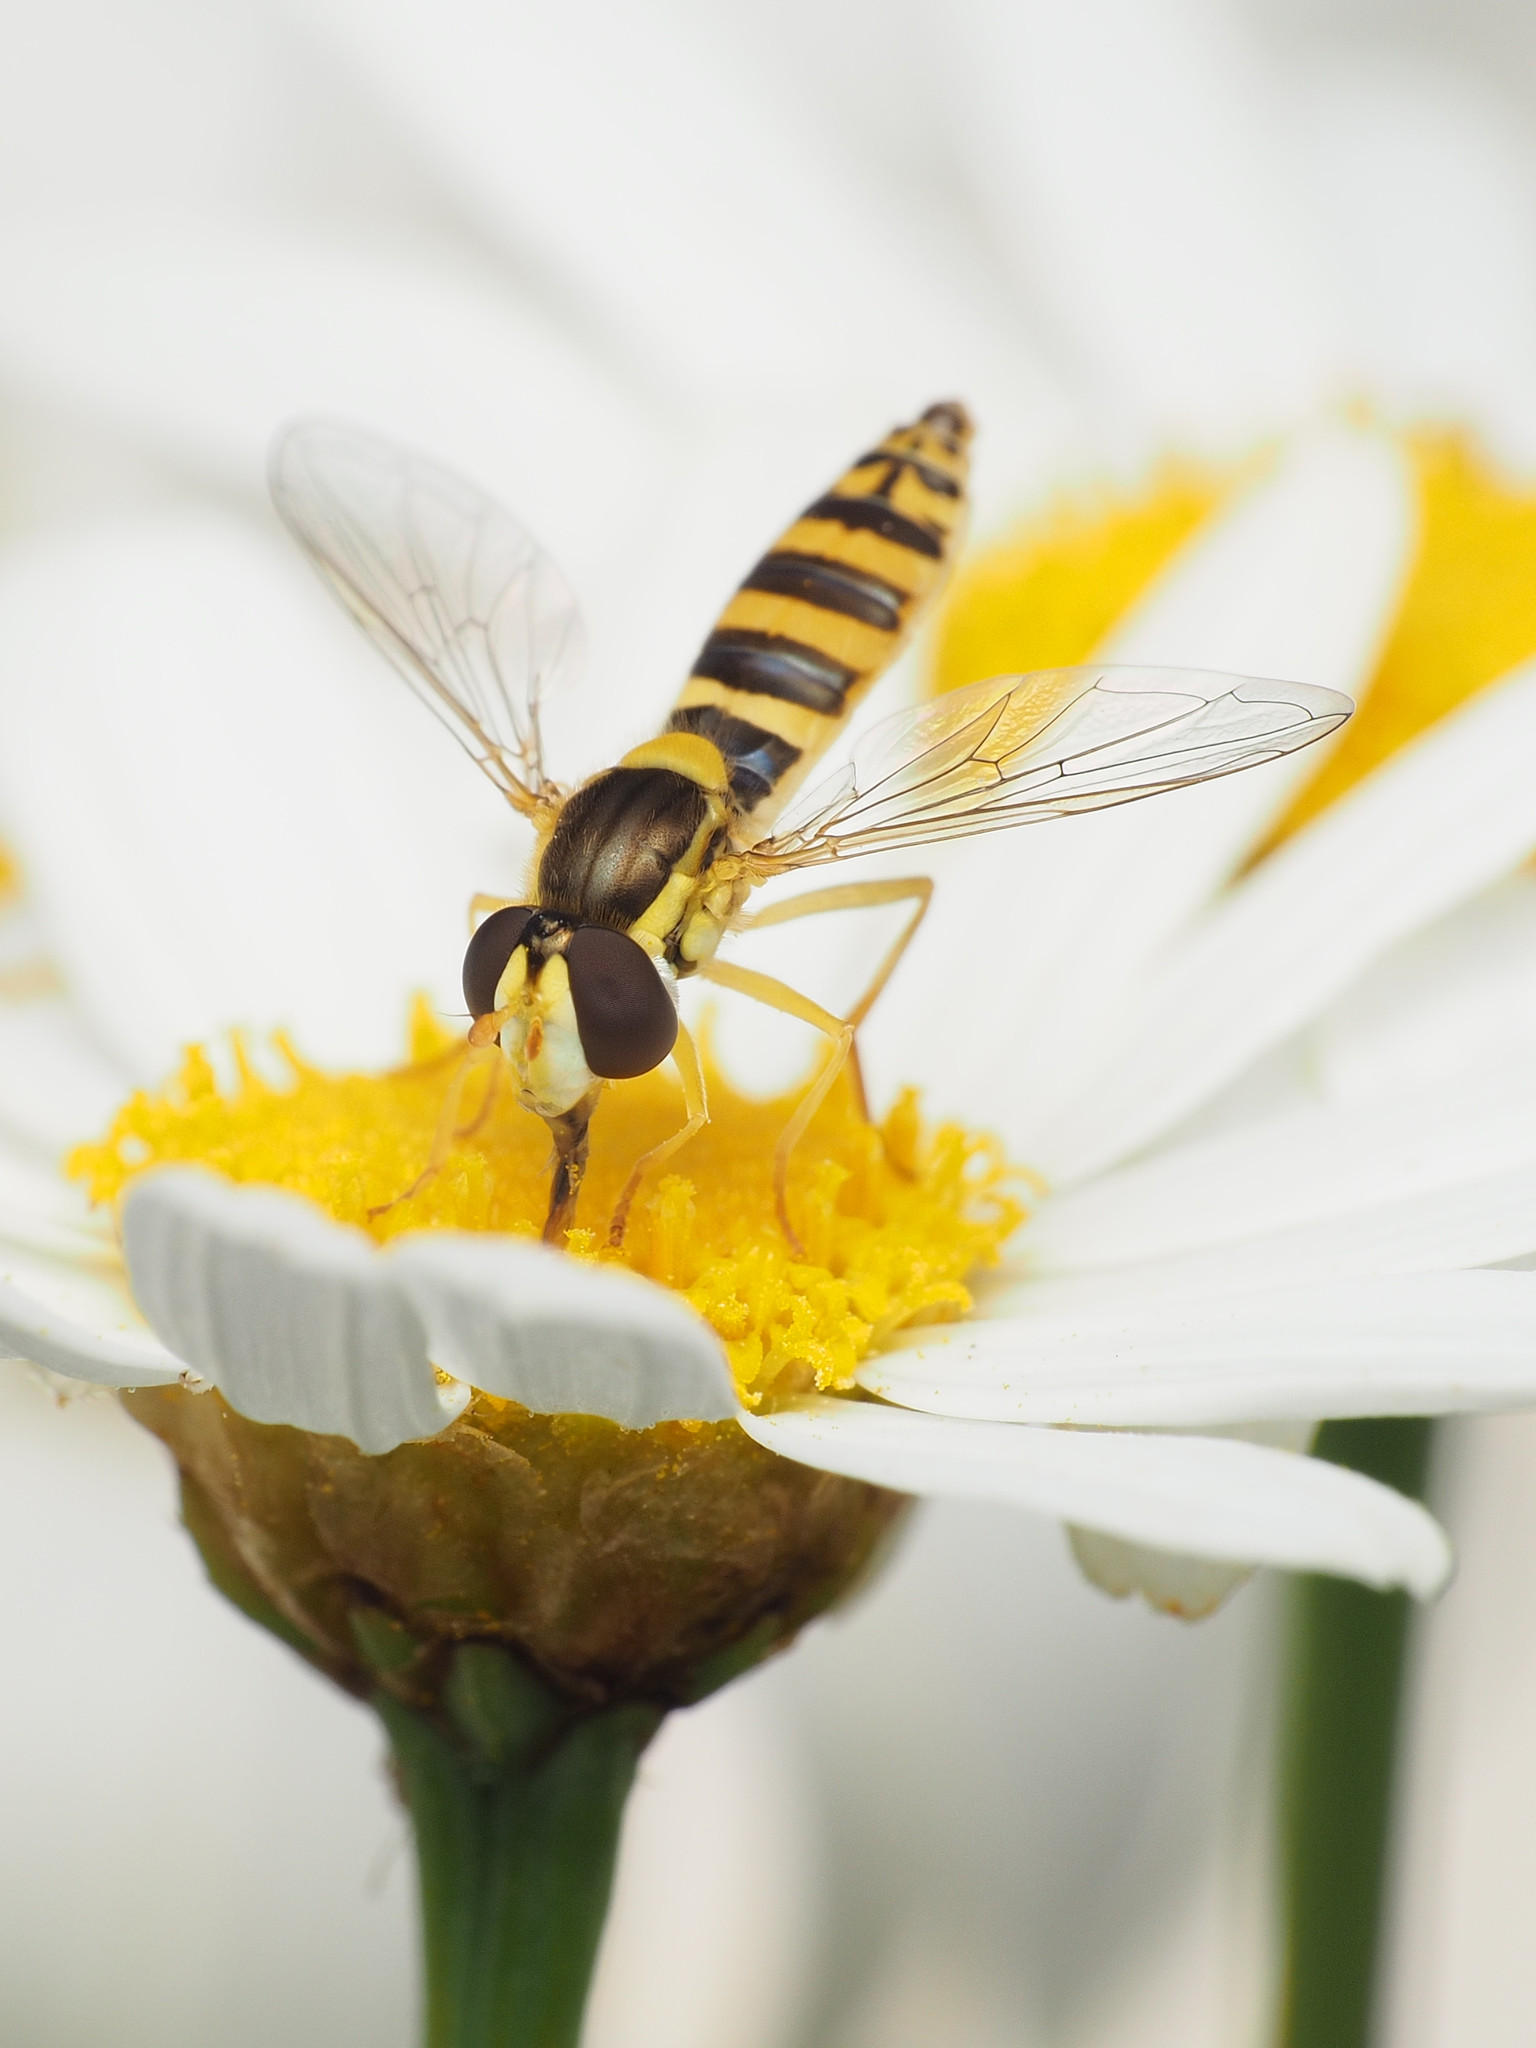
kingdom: Animalia
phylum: Arthropoda
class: Insecta
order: Diptera
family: Syrphidae
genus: Sphaerophoria
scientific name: Sphaerophoria
